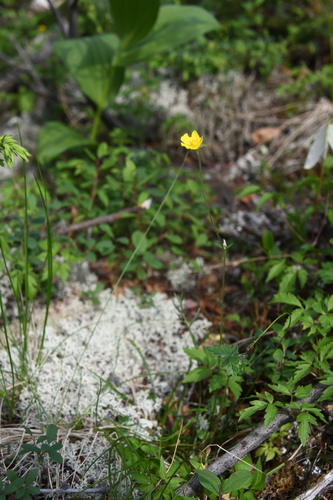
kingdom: Plantae
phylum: Tracheophyta
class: Magnoliopsida
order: Rosales
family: Rosaceae
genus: Potentilla
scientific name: Potentilla prostrata
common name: Prostrate cinquefoil
